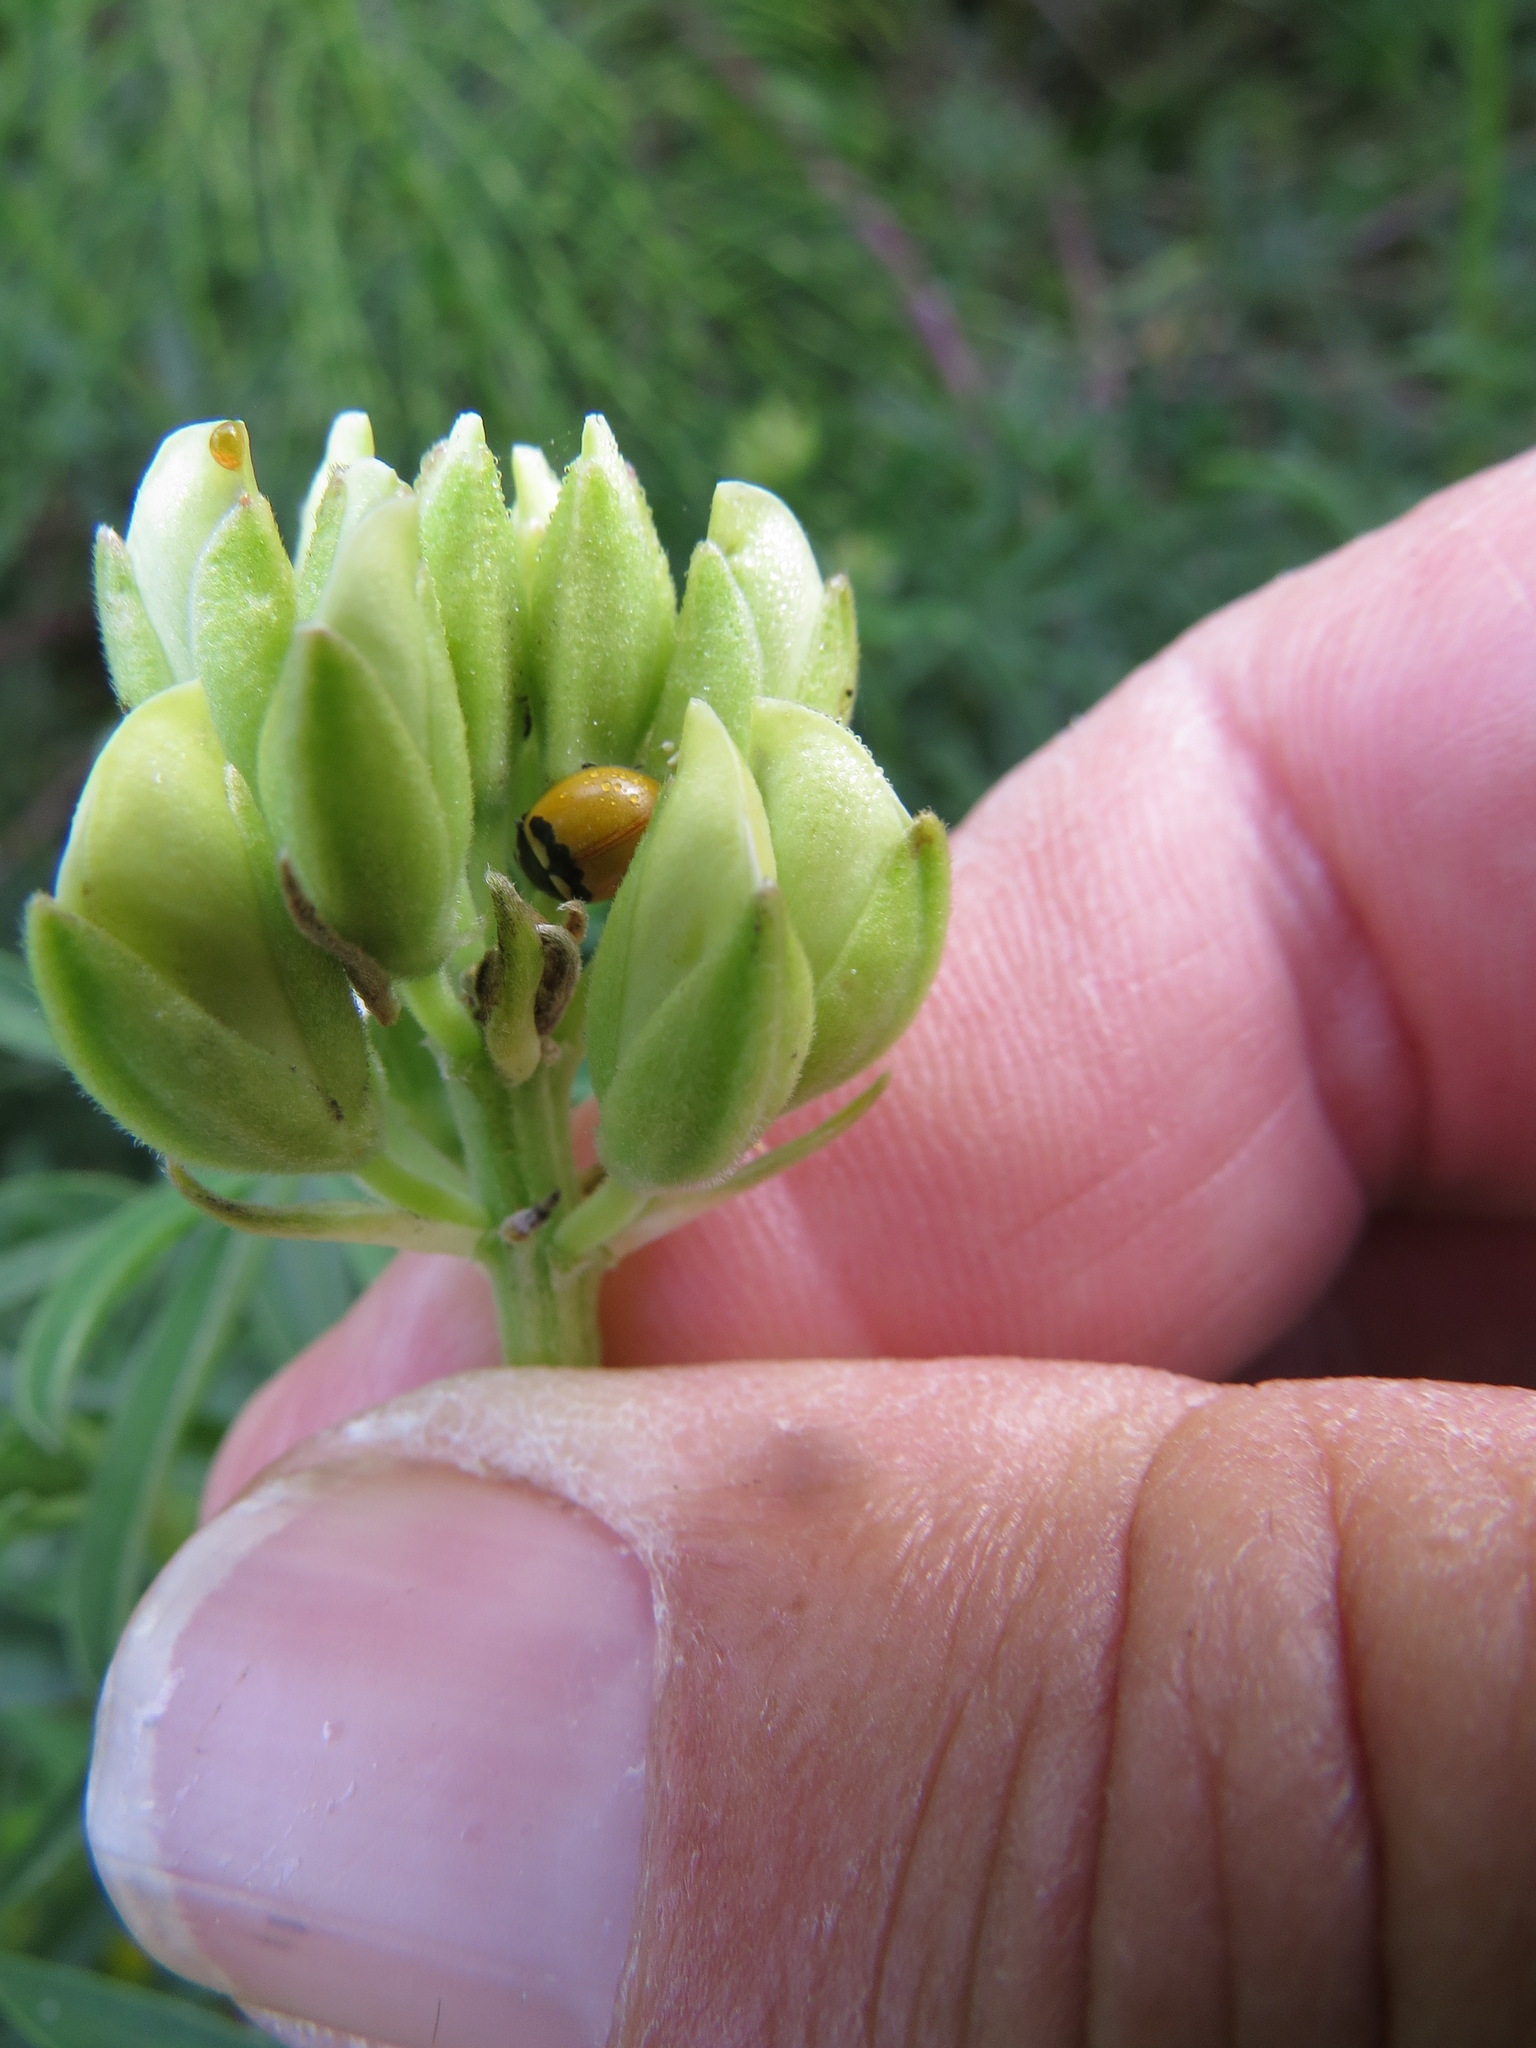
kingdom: Animalia
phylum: Arthropoda
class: Insecta
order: Coleoptera
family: Coccinellidae
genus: Coccinella
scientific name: Coccinella trifasciata
